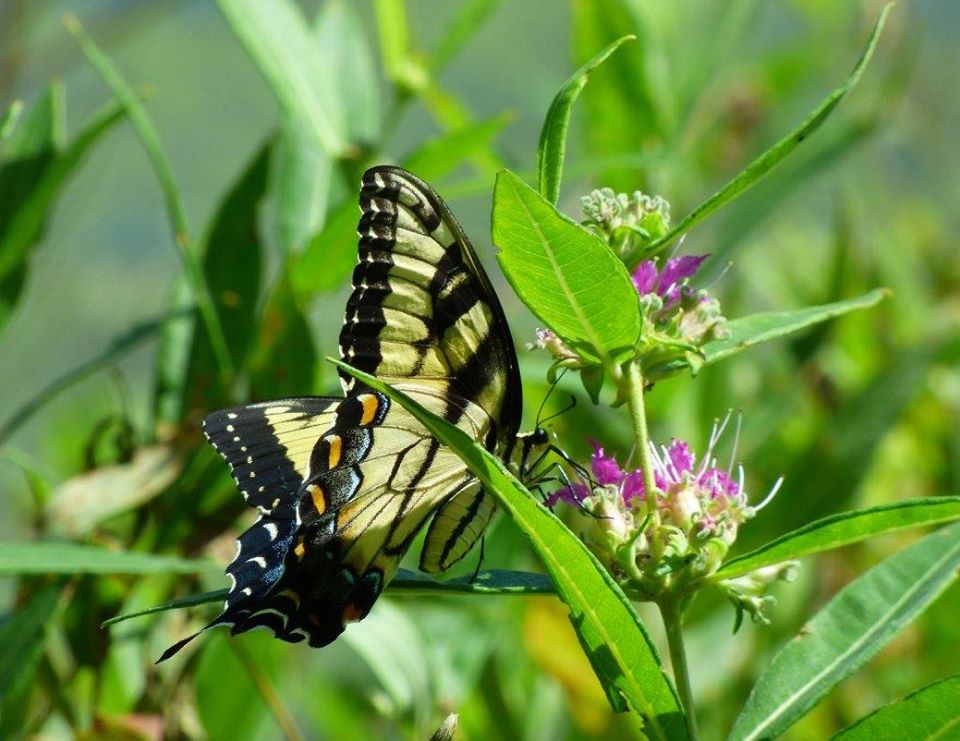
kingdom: Plantae
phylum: Tracheophyta
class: Magnoliopsida
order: Myrtales
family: Lythraceae
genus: Decodon
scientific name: Decodon verticillatus
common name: Hairy swamp loosestrife
